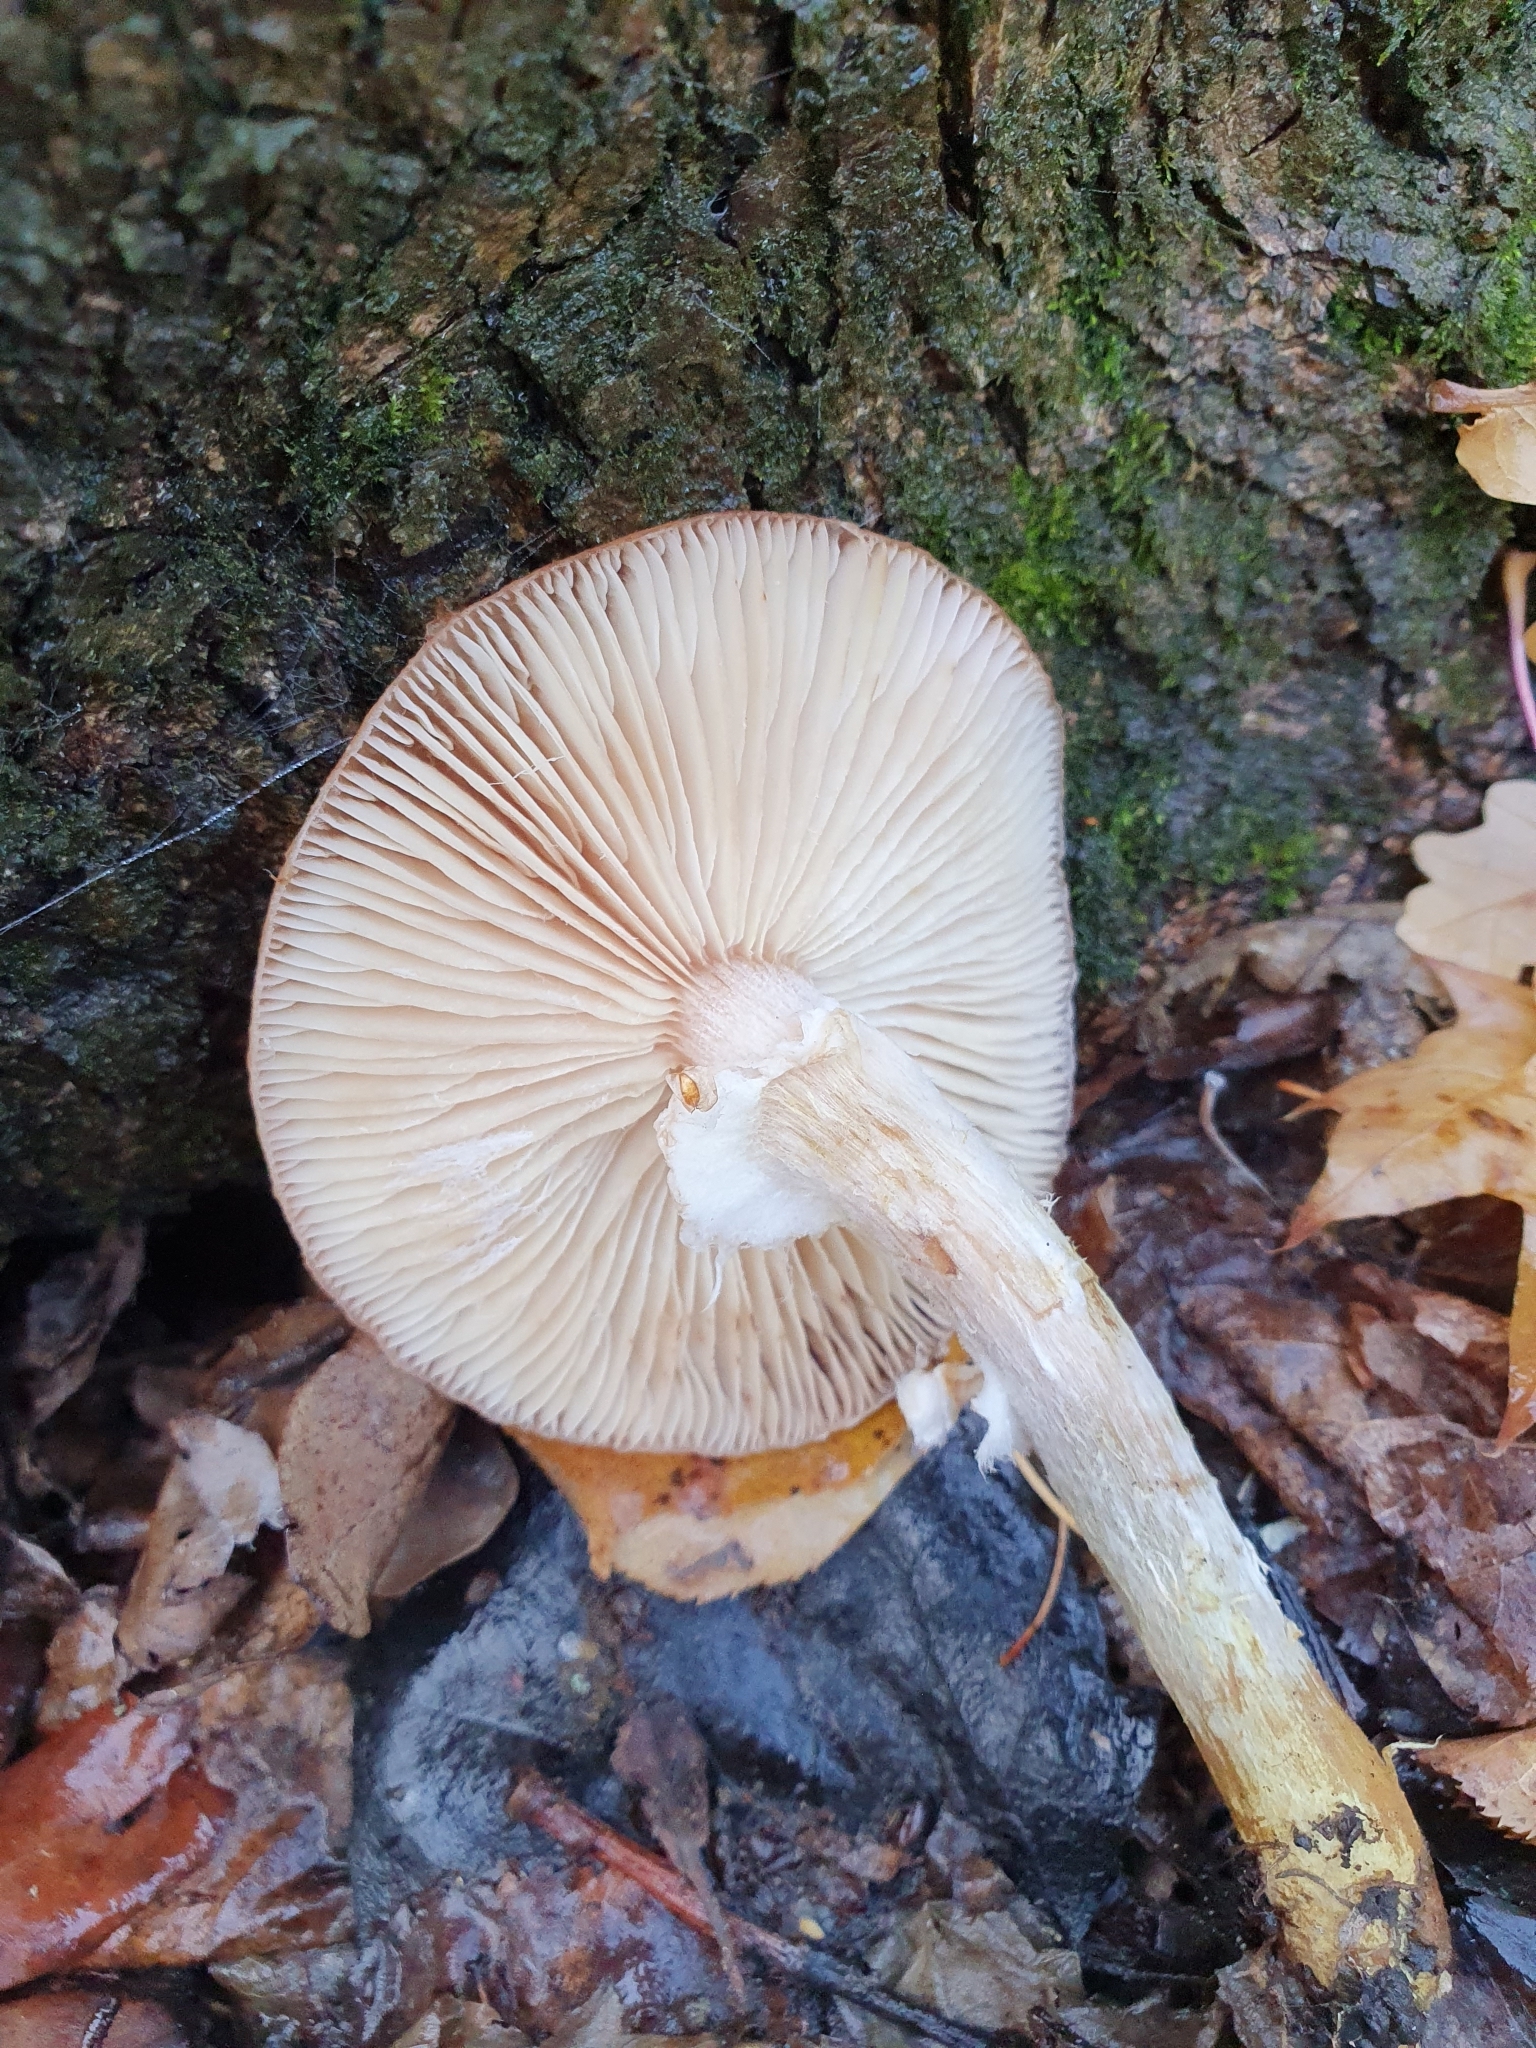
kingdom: Fungi
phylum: Basidiomycota
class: Agaricomycetes
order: Agaricales
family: Physalacriaceae
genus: Armillaria
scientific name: Armillaria ostoyae
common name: Dark honey fungus
